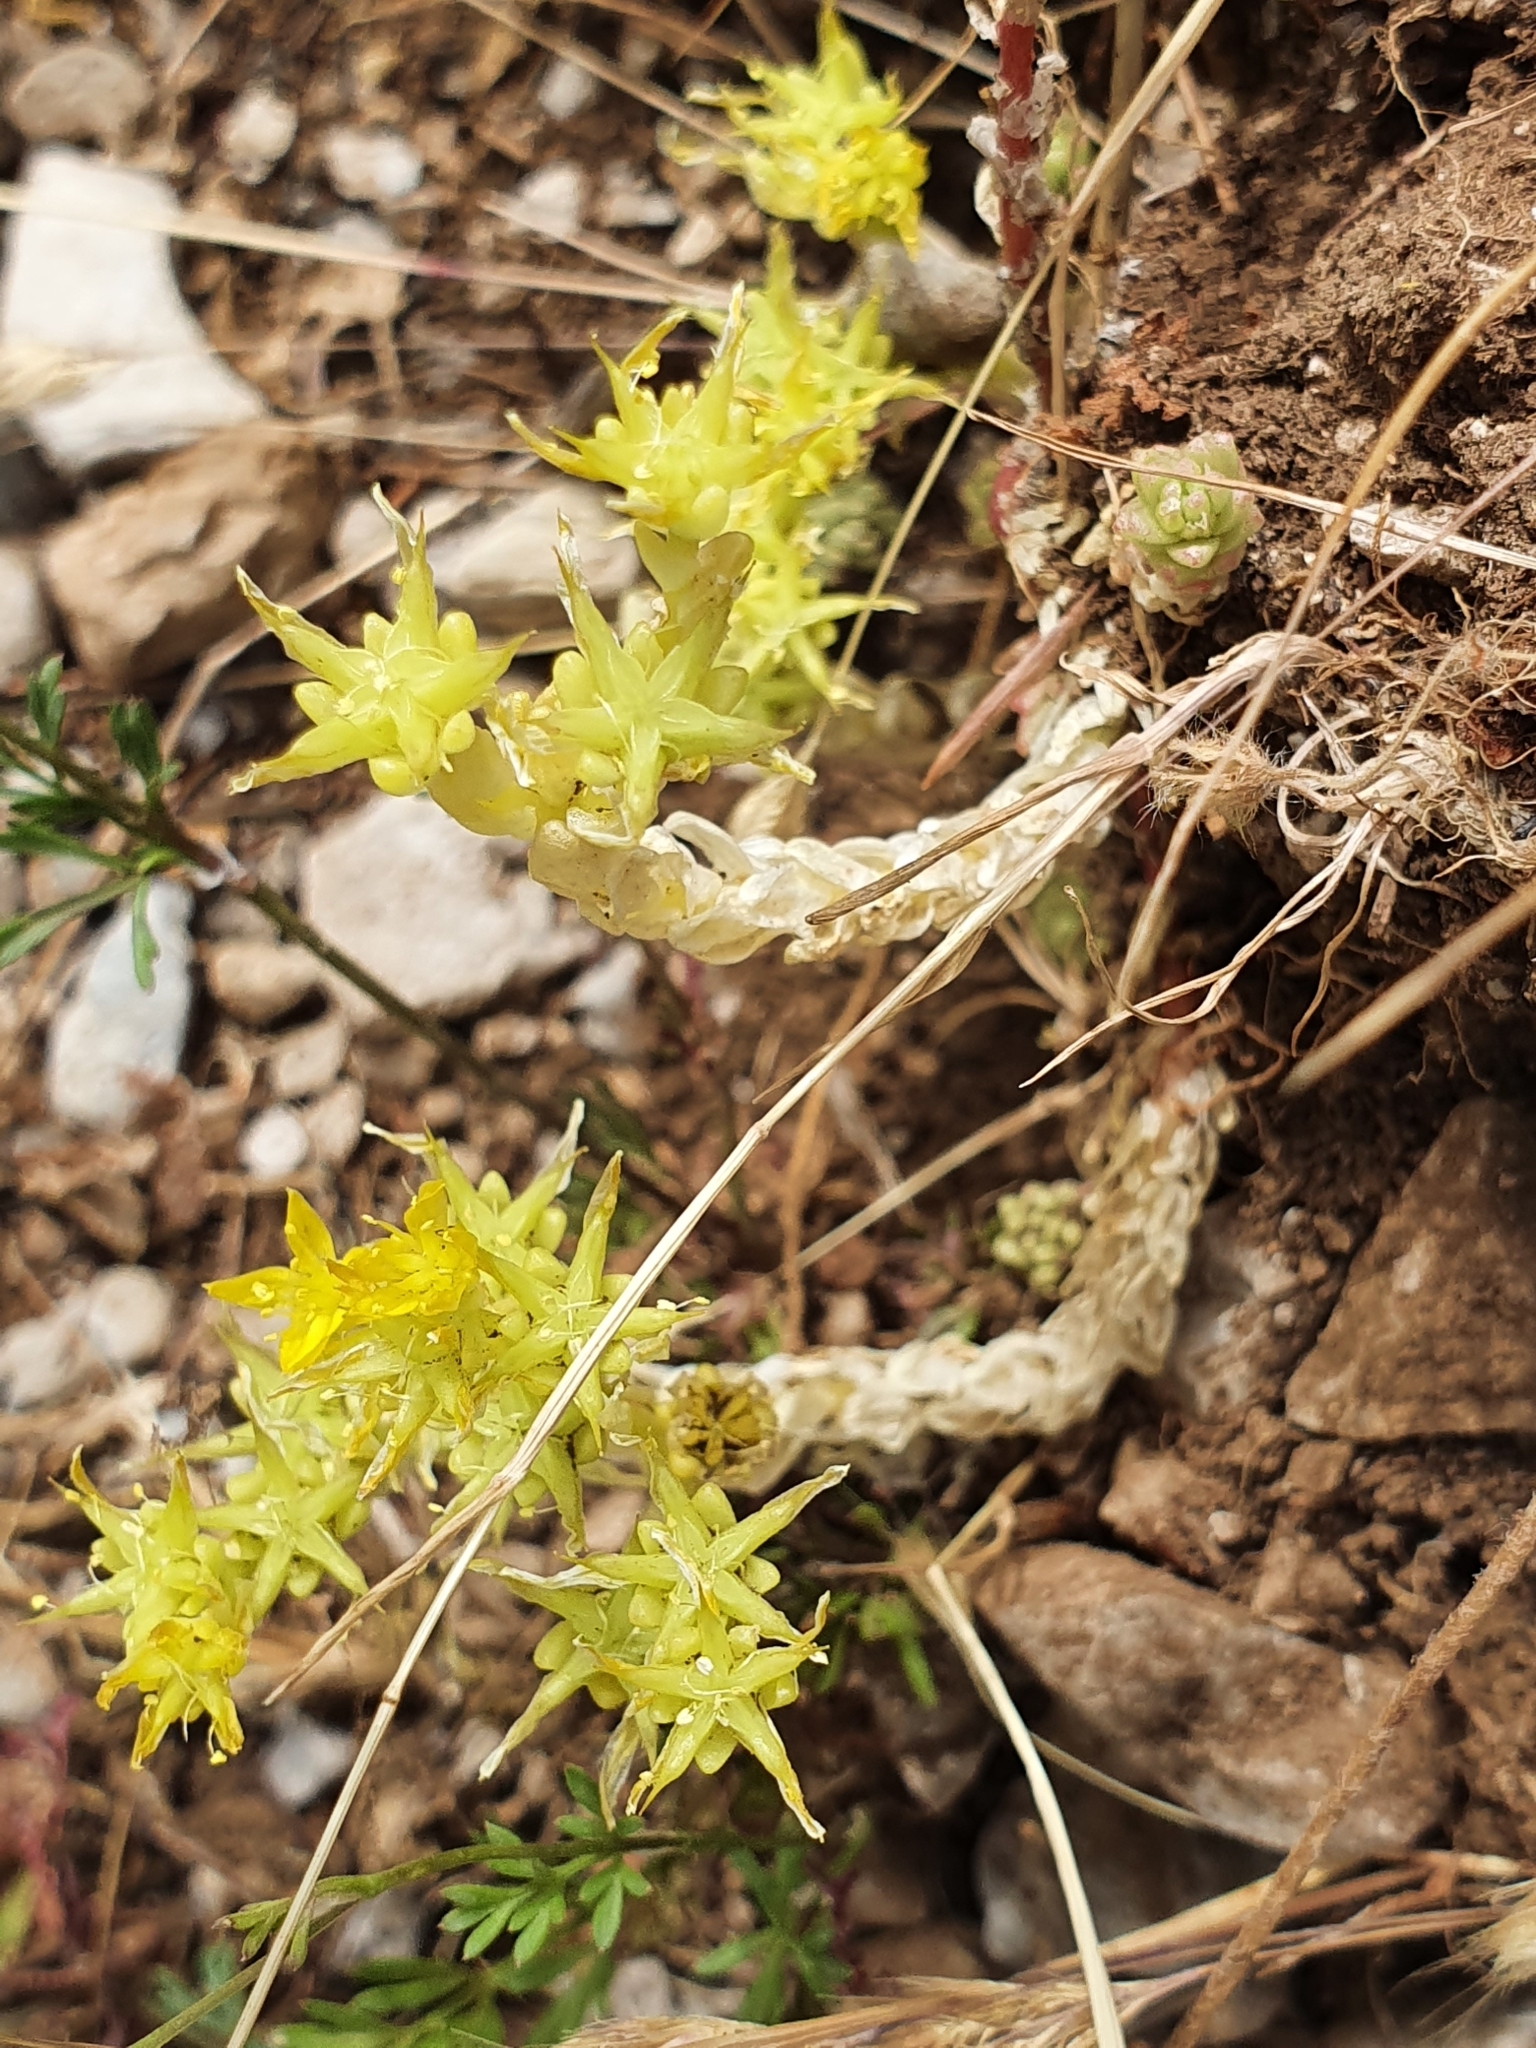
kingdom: Plantae
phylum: Tracheophyta
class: Magnoliopsida
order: Saxifragales
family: Crassulaceae
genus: Sedum
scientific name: Sedum acre
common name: Biting stonecrop
